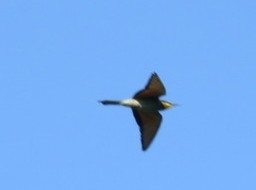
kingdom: Animalia
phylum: Chordata
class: Aves
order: Coraciiformes
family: Meropidae
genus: Merops
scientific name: Merops apiaster
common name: European bee-eater
